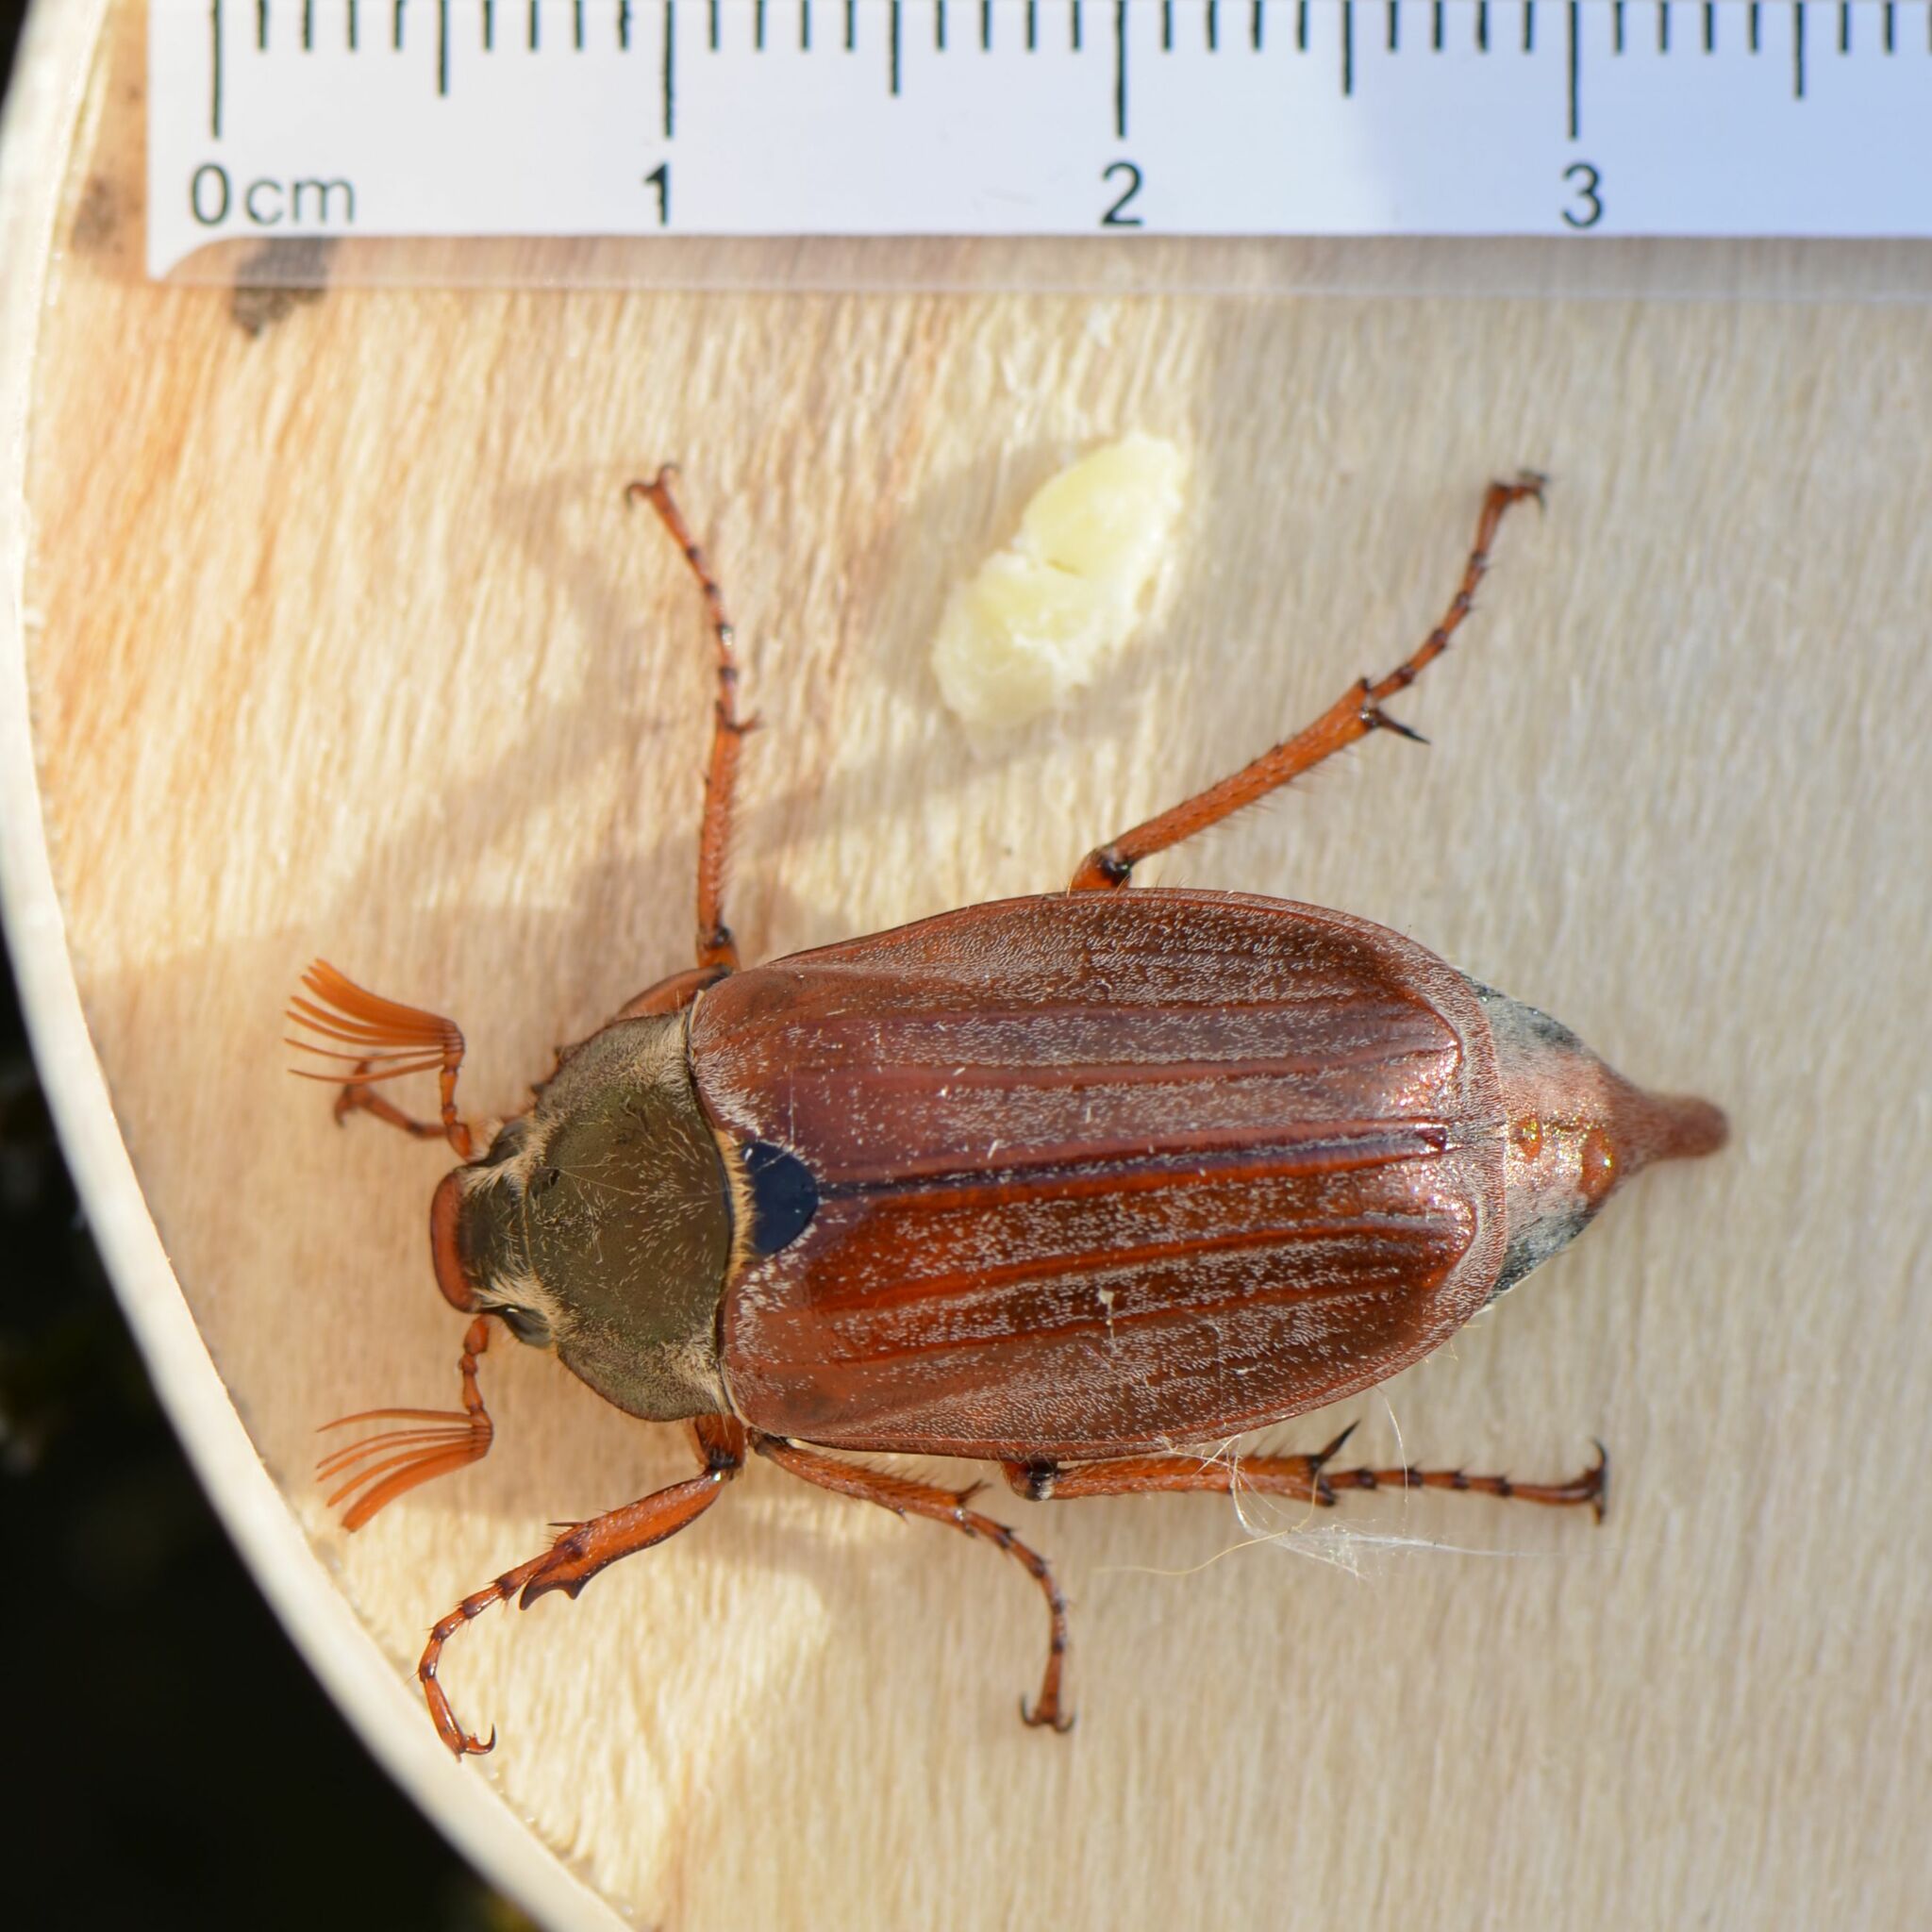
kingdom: Animalia
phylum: Arthropoda
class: Insecta
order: Coleoptera
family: Scarabaeidae
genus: Melolontha
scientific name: Melolontha melolontha
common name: Cockchafer maybeetle
